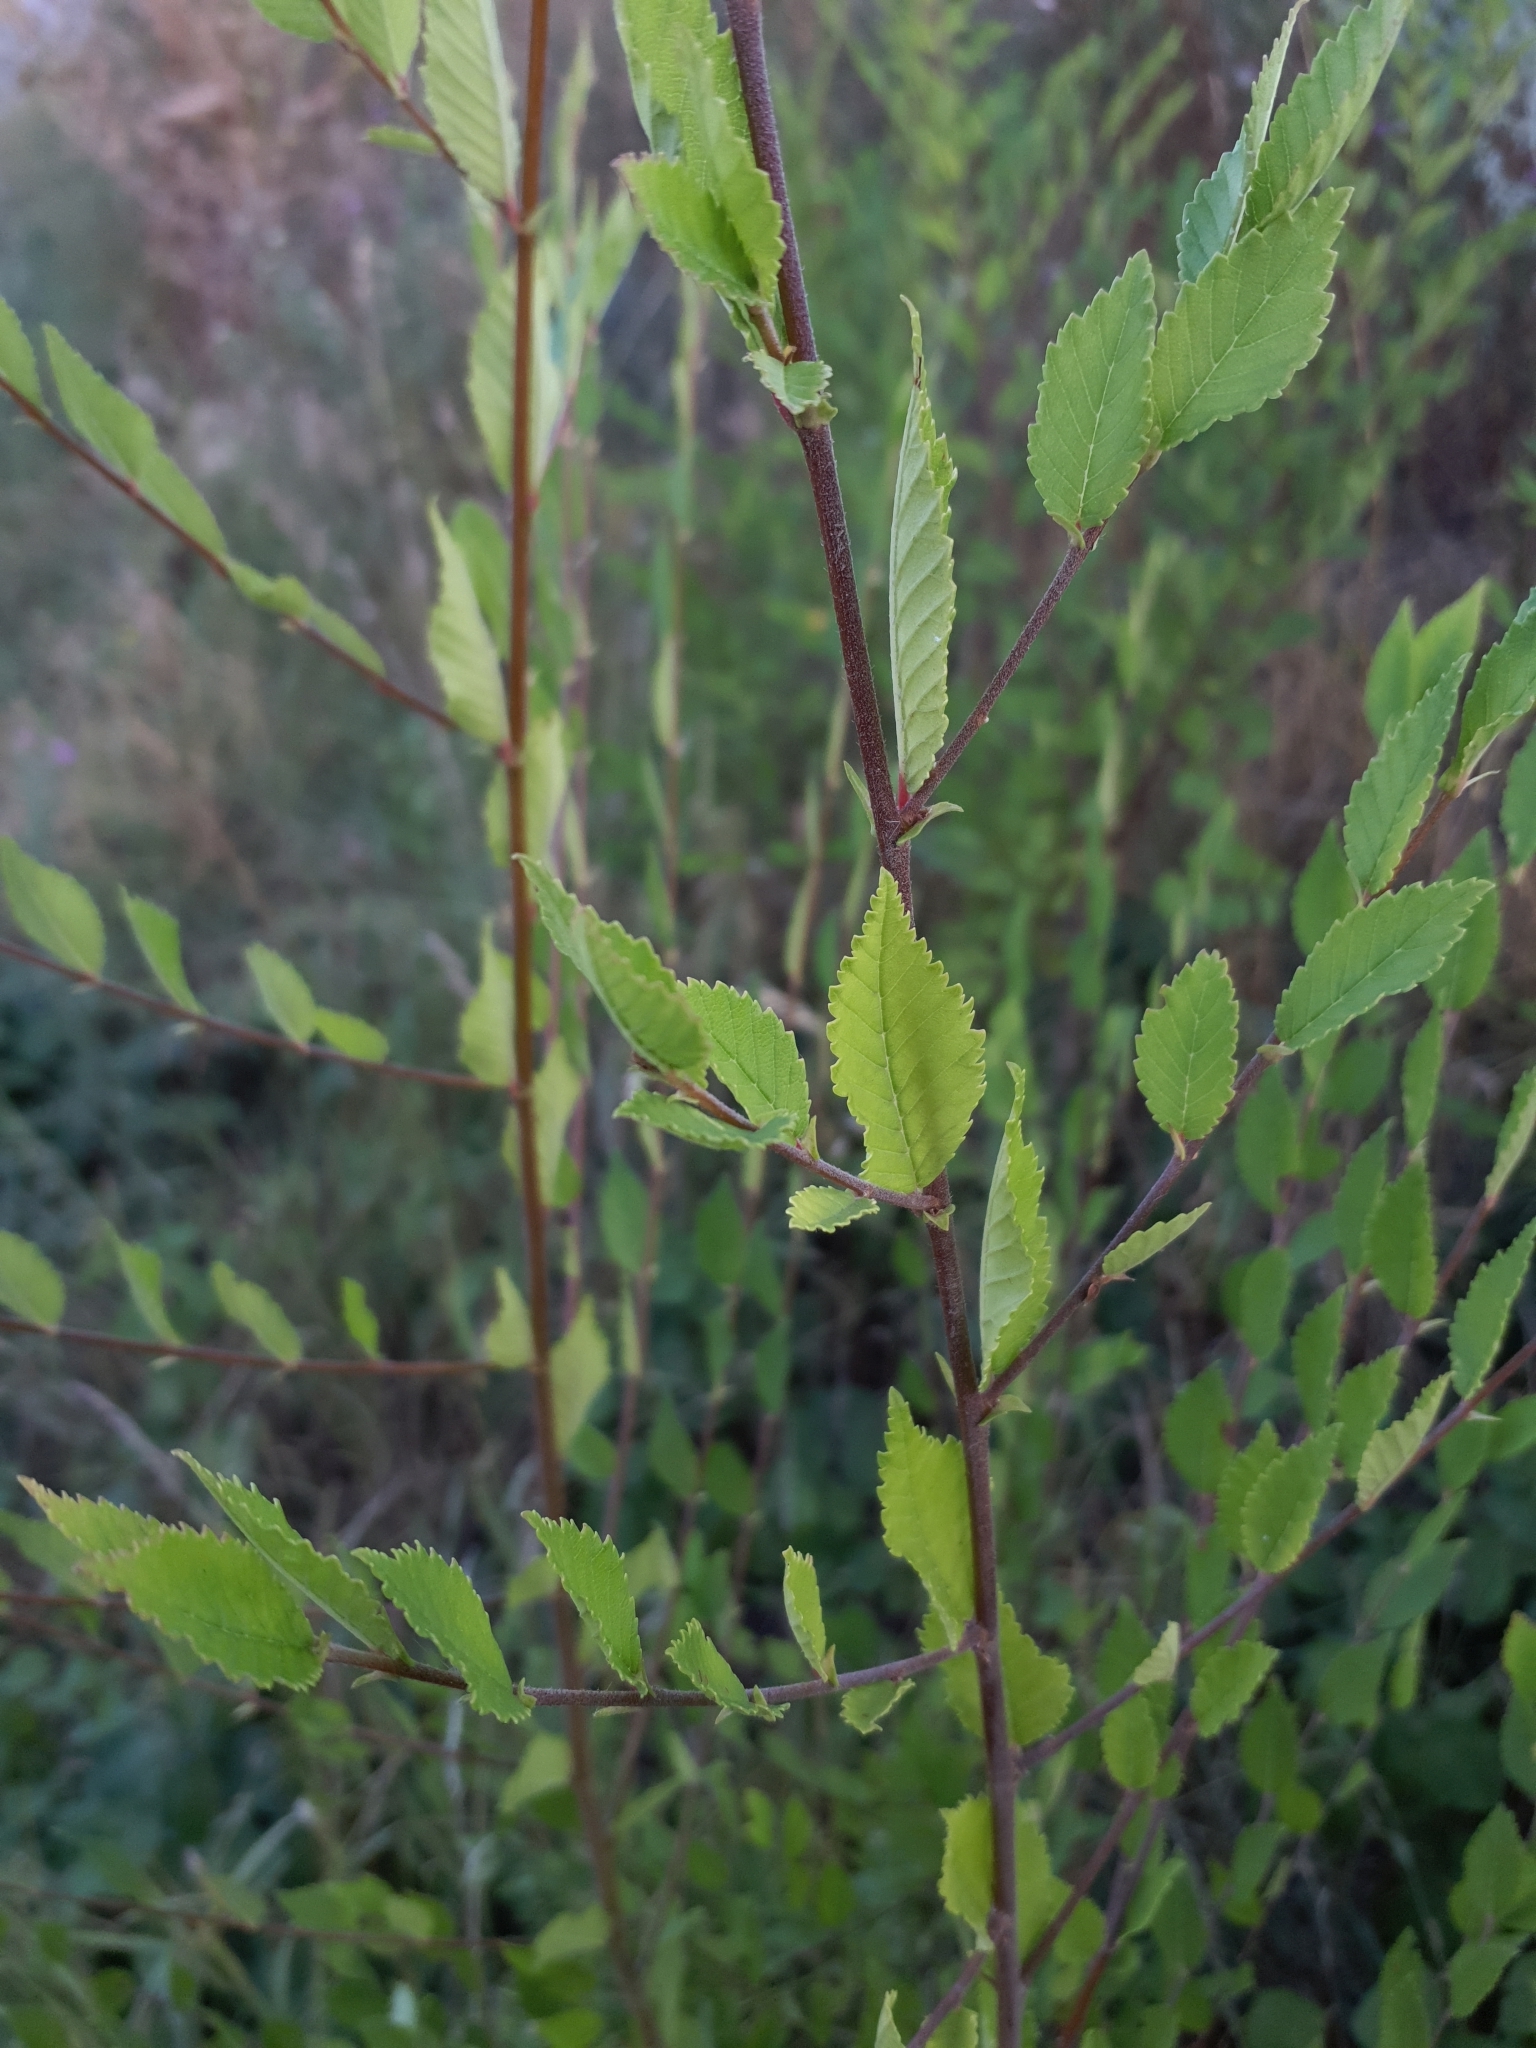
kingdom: Plantae
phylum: Tracheophyta
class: Magnoliopsida
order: Rosales
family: Ulmaceae
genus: Ulmus
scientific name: Ulmus pumila
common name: Siberian elm
